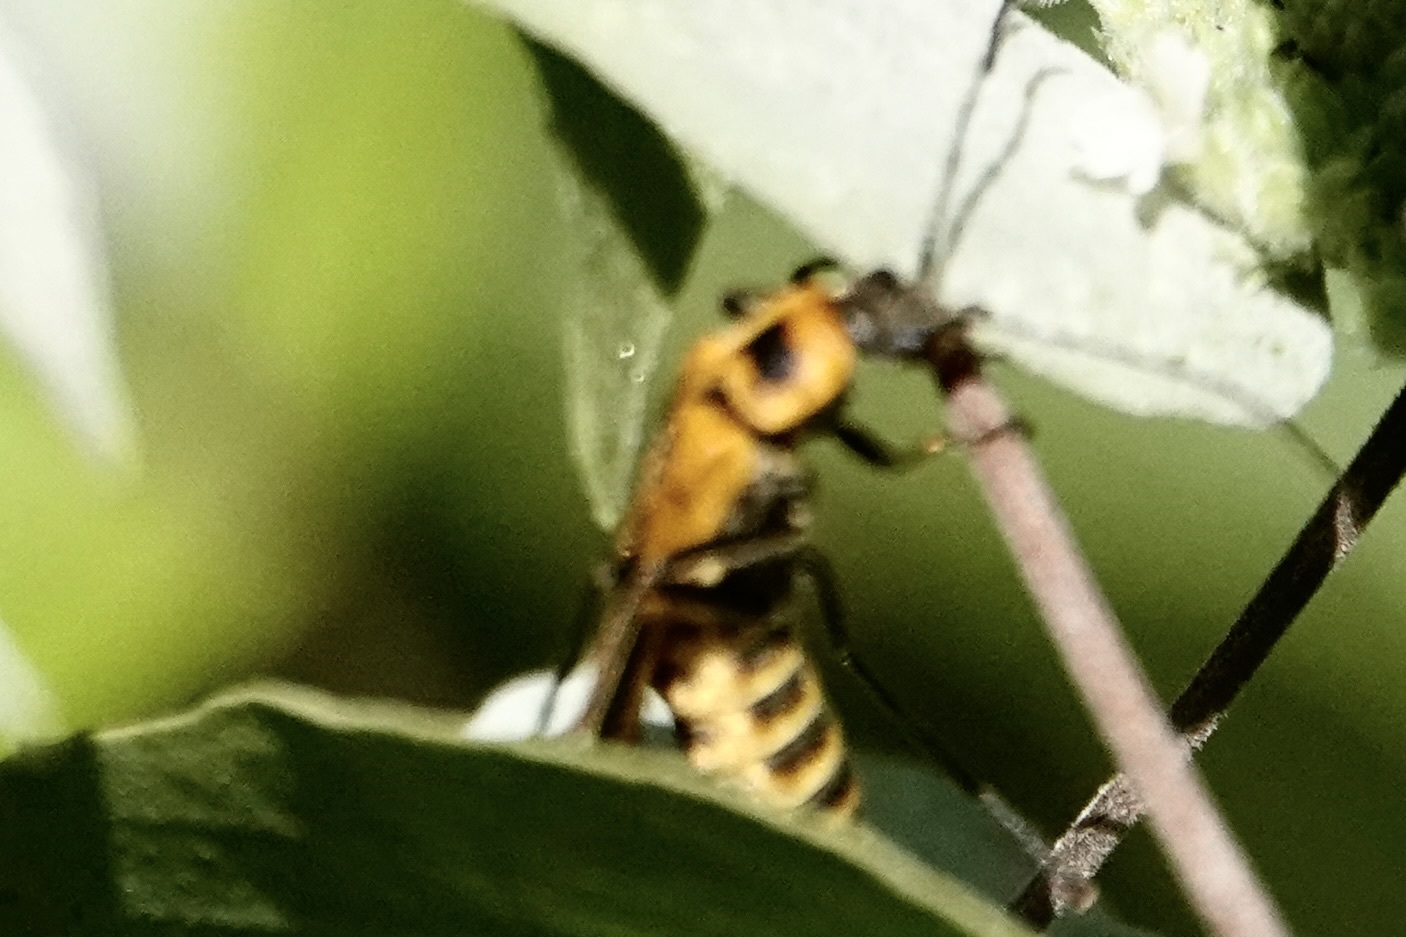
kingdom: Animalia
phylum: Arthropoda
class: Insecta
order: Coleoptera
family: Cantharidae
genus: Chauliognathus
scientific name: Chauliognathus pensylvanicus
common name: Goldenrod soldier beetle
